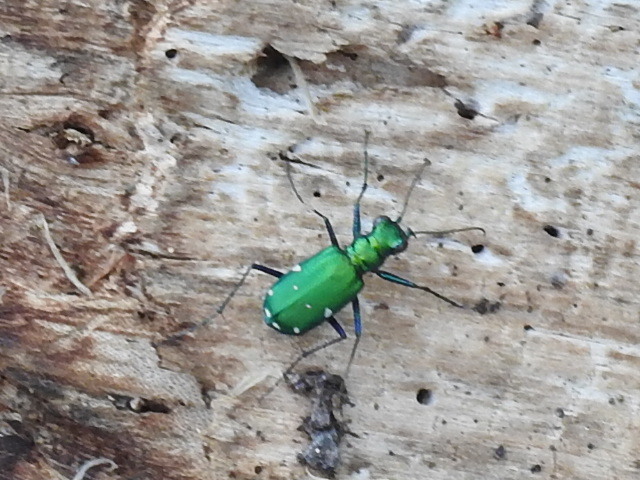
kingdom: Animalia
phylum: Arthropoda
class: Insecta
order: Coleoptera
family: Carabidae
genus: Cicindela
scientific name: Cicindela sexguttata
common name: Six-spotted tiger beetle
